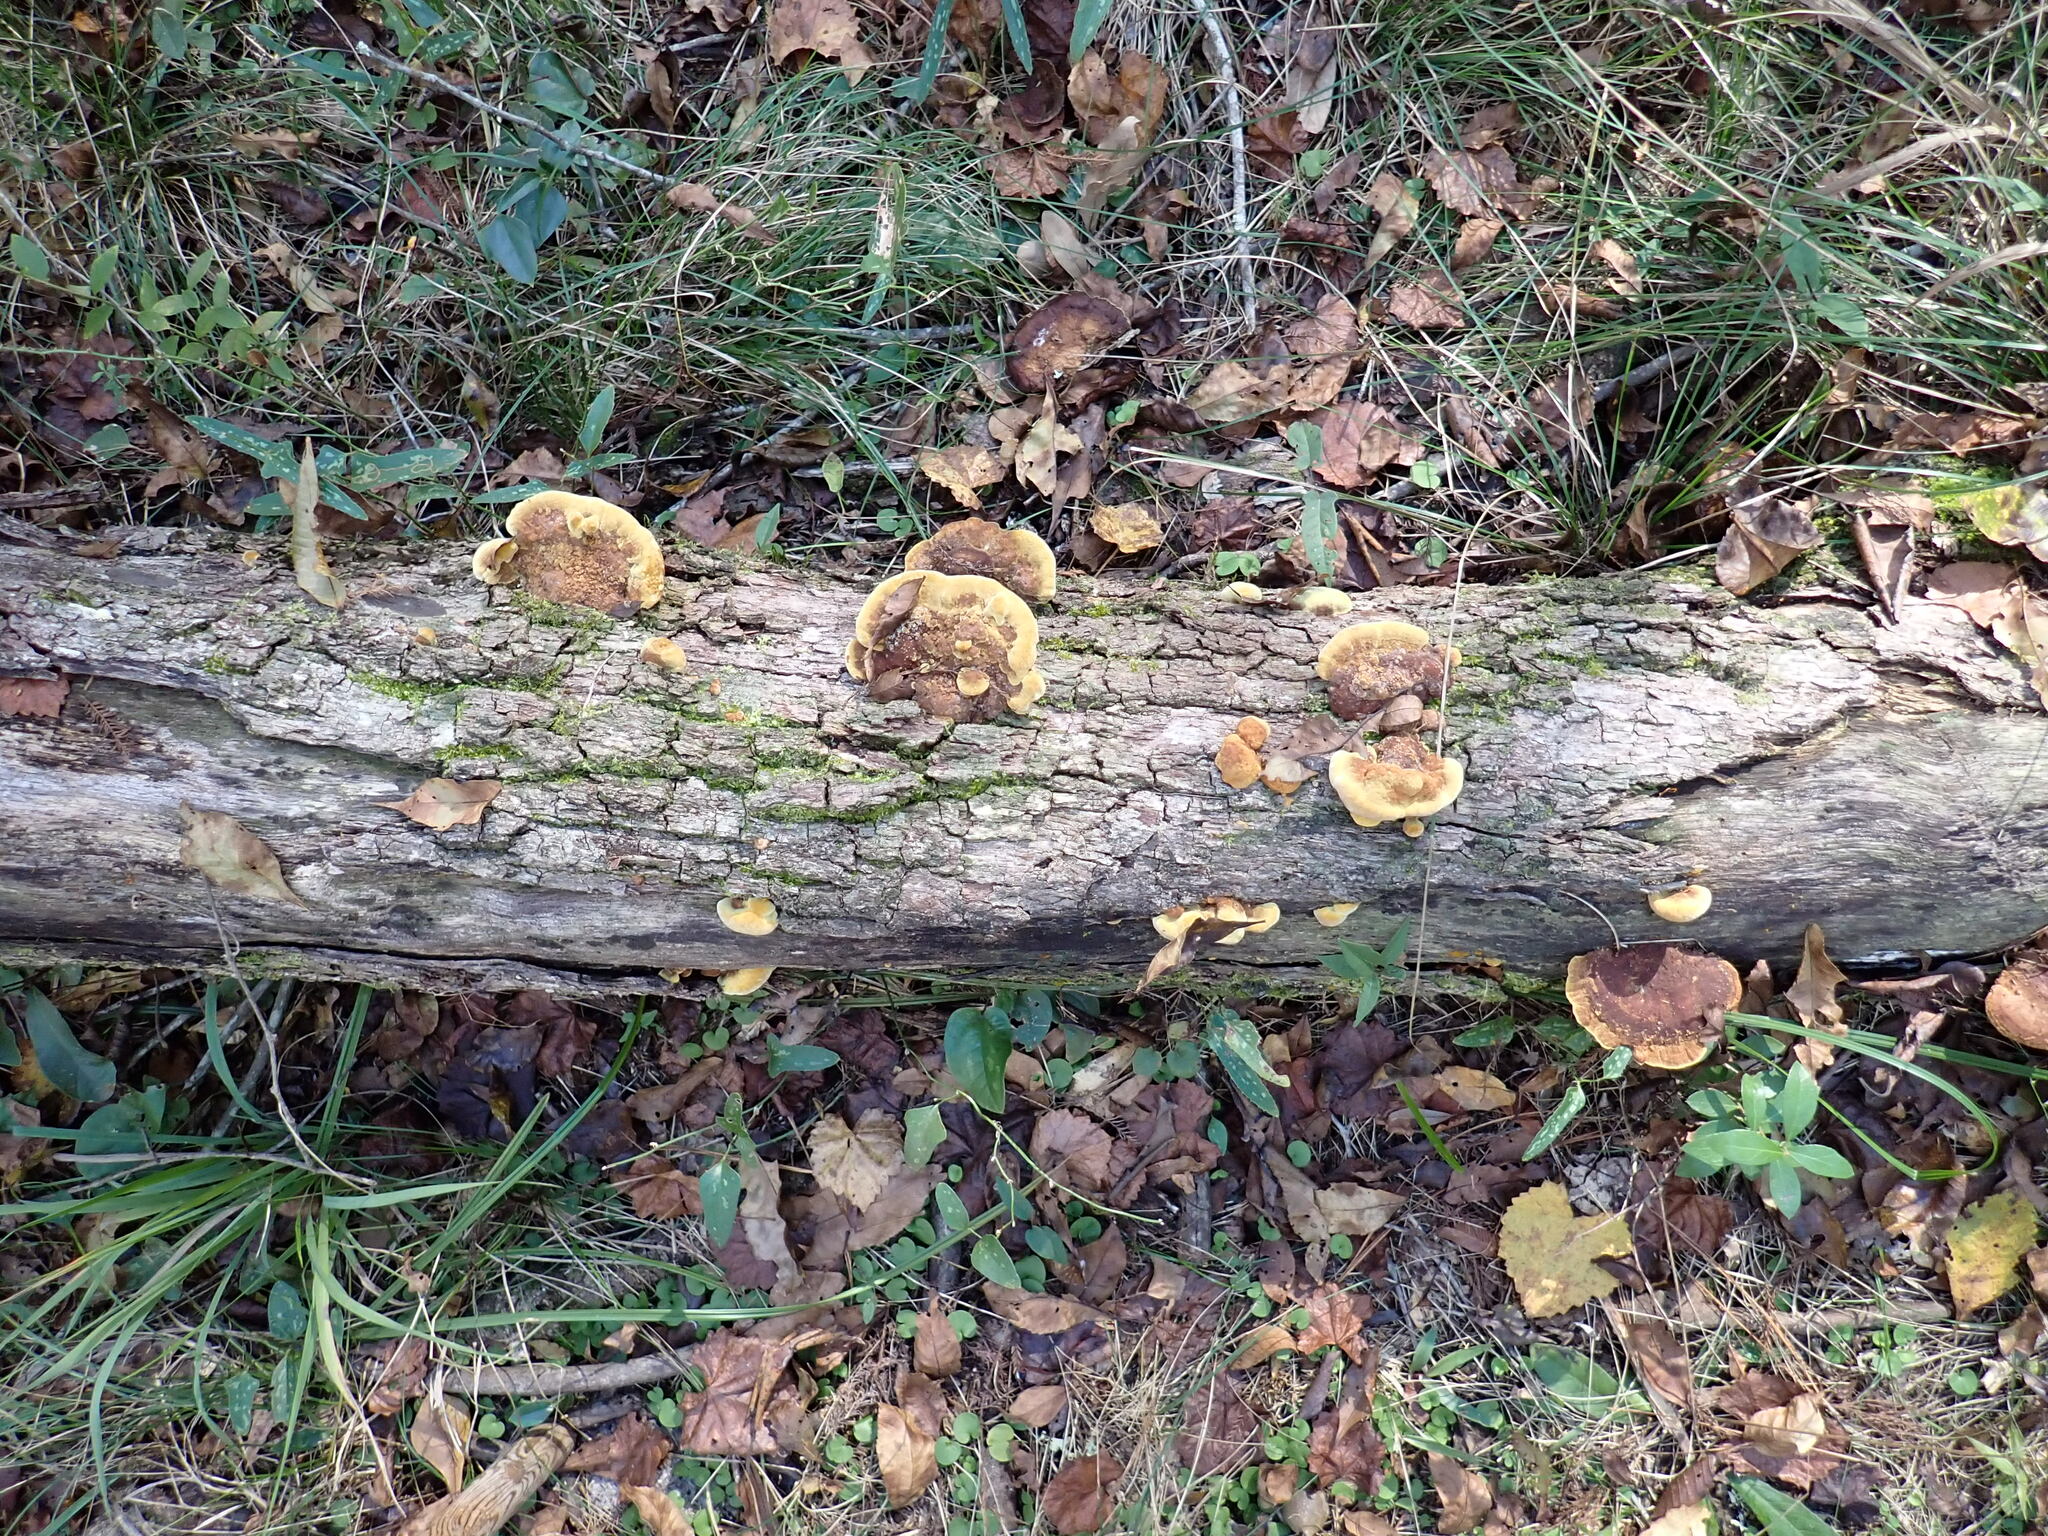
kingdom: Fungi
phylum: Basidiomycota
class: Agaricomycetes
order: Hymenochaetales
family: Hymenochaetaceae
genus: Phellinus
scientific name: Phellinus gilvus
